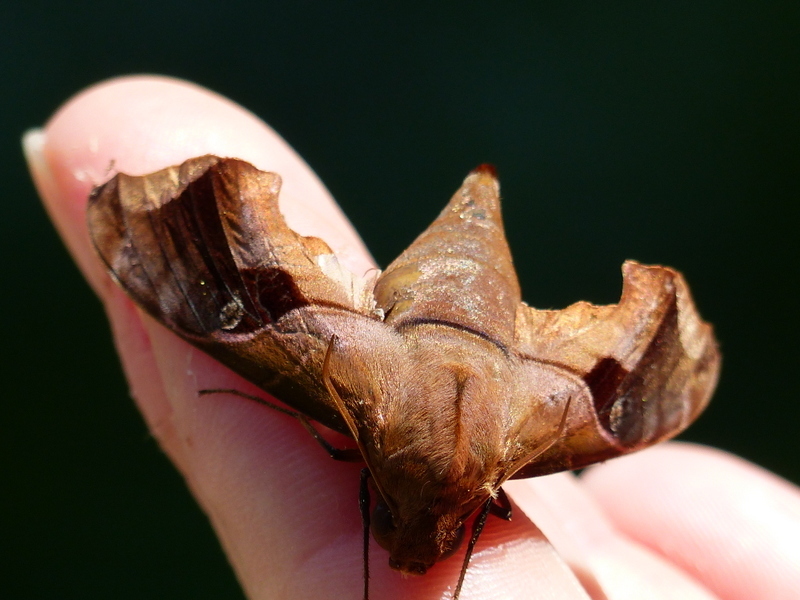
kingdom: Animalia
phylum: Arthropoda
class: Insecta
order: Lepidoptera
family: Sphingidae
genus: Enyo
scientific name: Enyo gorgon
